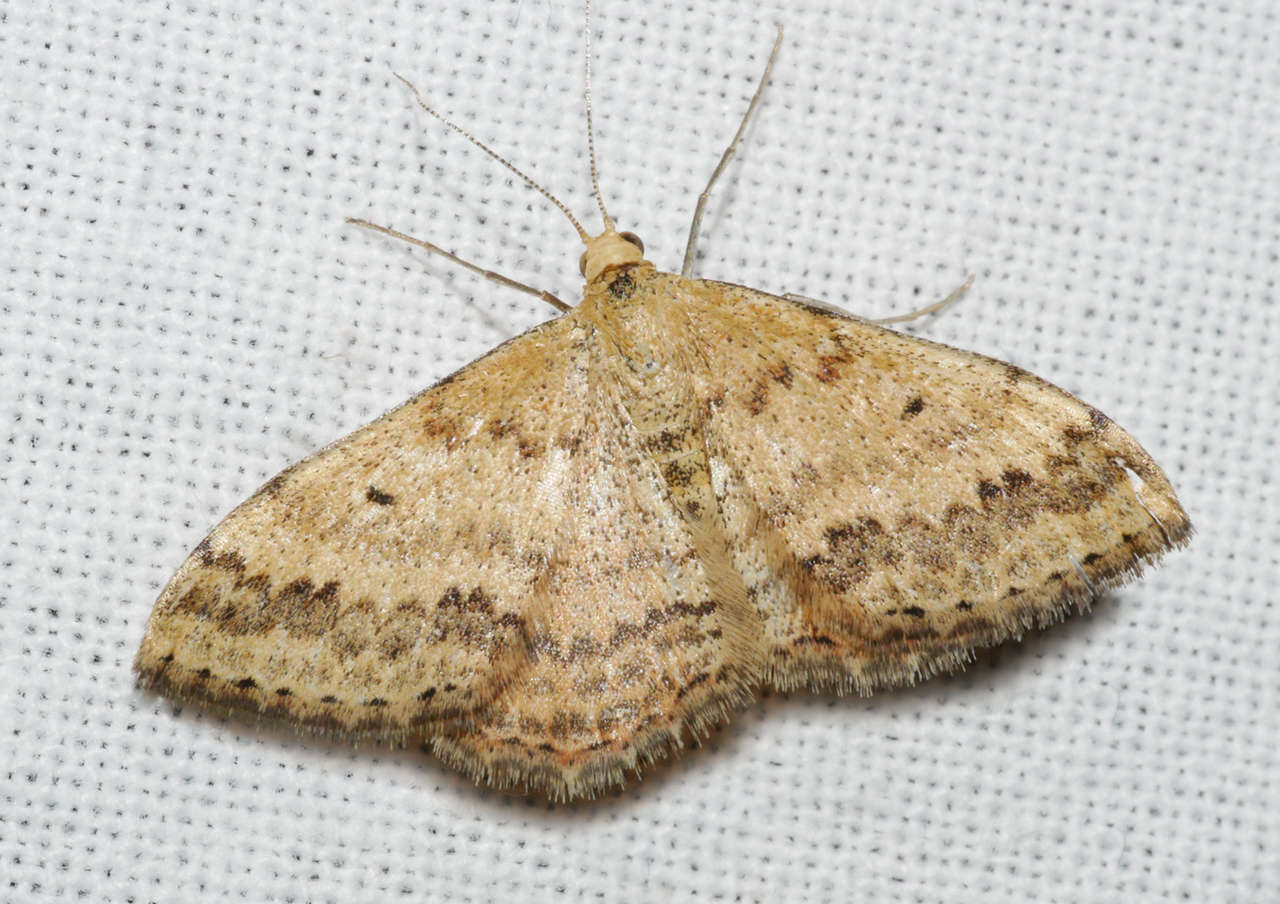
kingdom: Animalia
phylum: Arthropoda
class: Insecta
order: Lepidoptera
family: Geometridae
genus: Scopula
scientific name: Scopula rubraria
